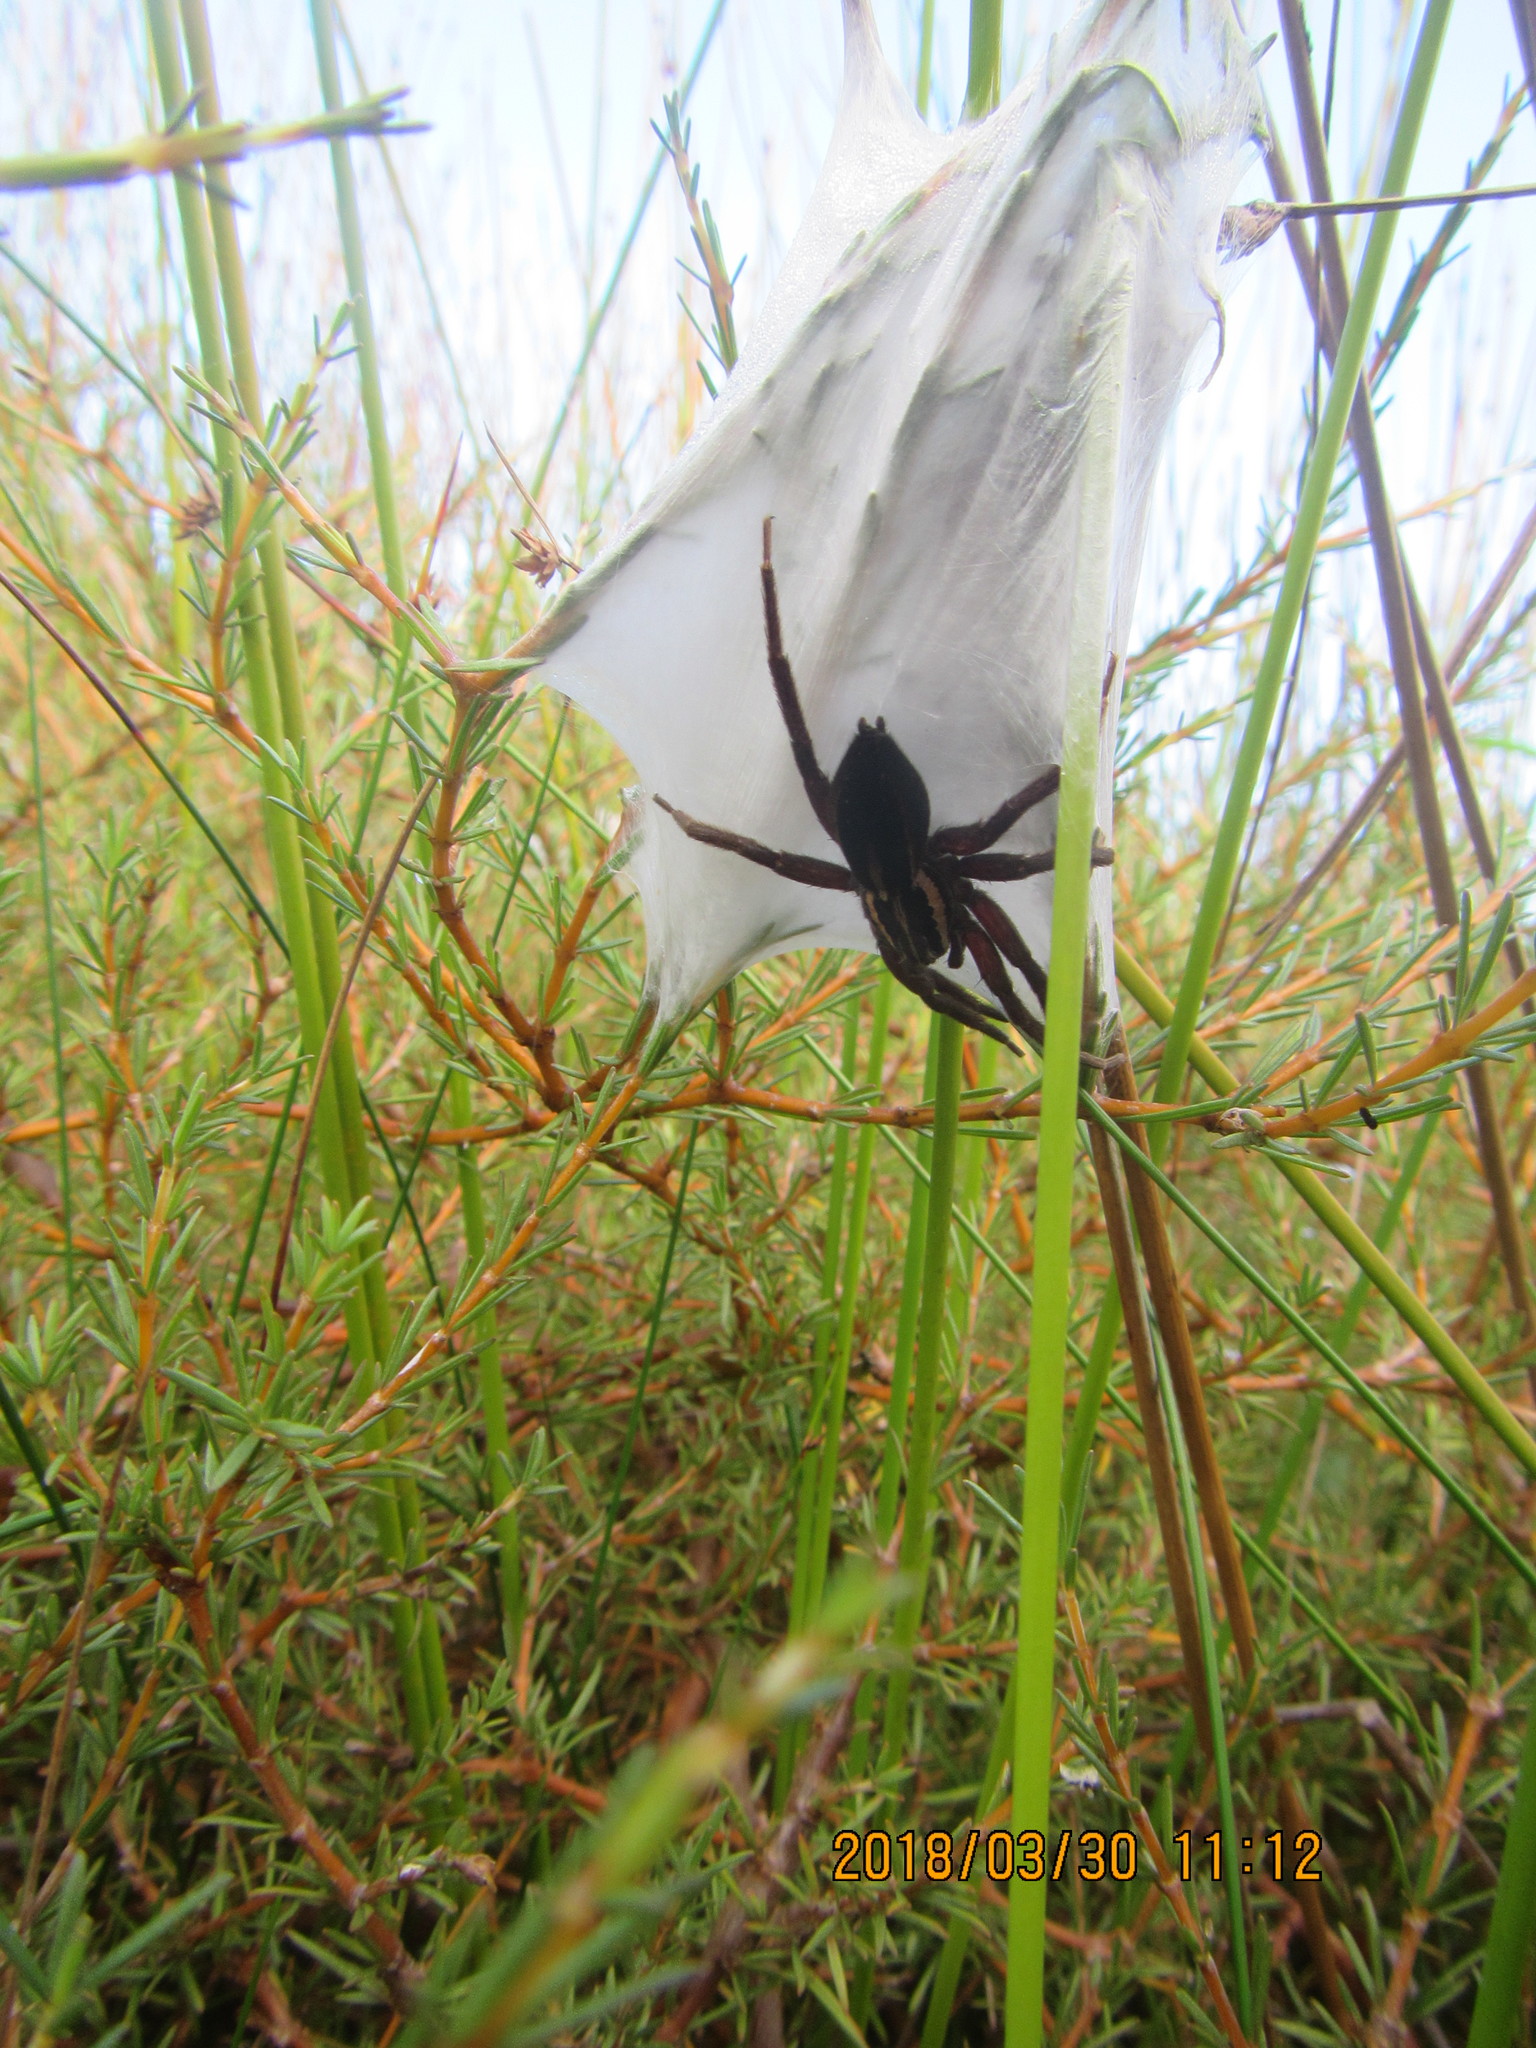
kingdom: Animalia
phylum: Arthropoda
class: Arachnida
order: Araneae
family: Pisauridae
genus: Dolomedes
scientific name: Dolomedes minor
